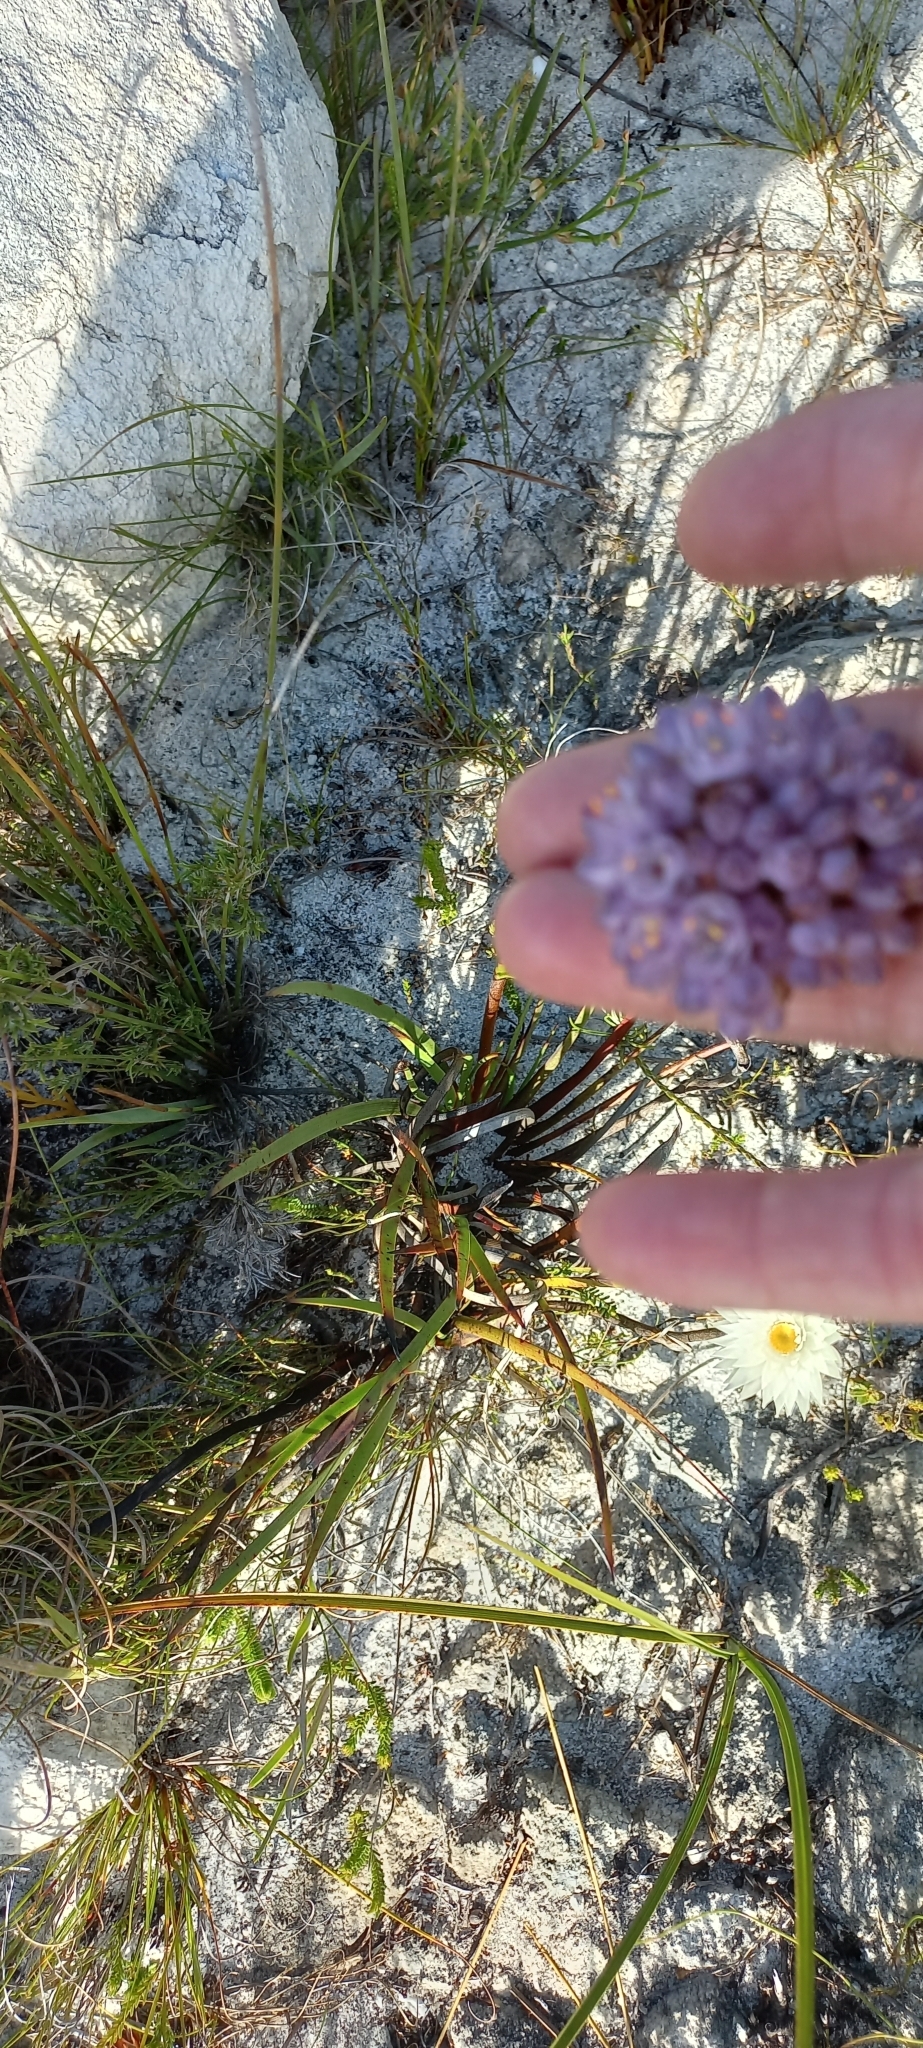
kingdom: Plantae
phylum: Tracheophyta
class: Liliopsida
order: Commelinales
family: Haemodoraceae
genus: Dilatris
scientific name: Dilatris pillansii
